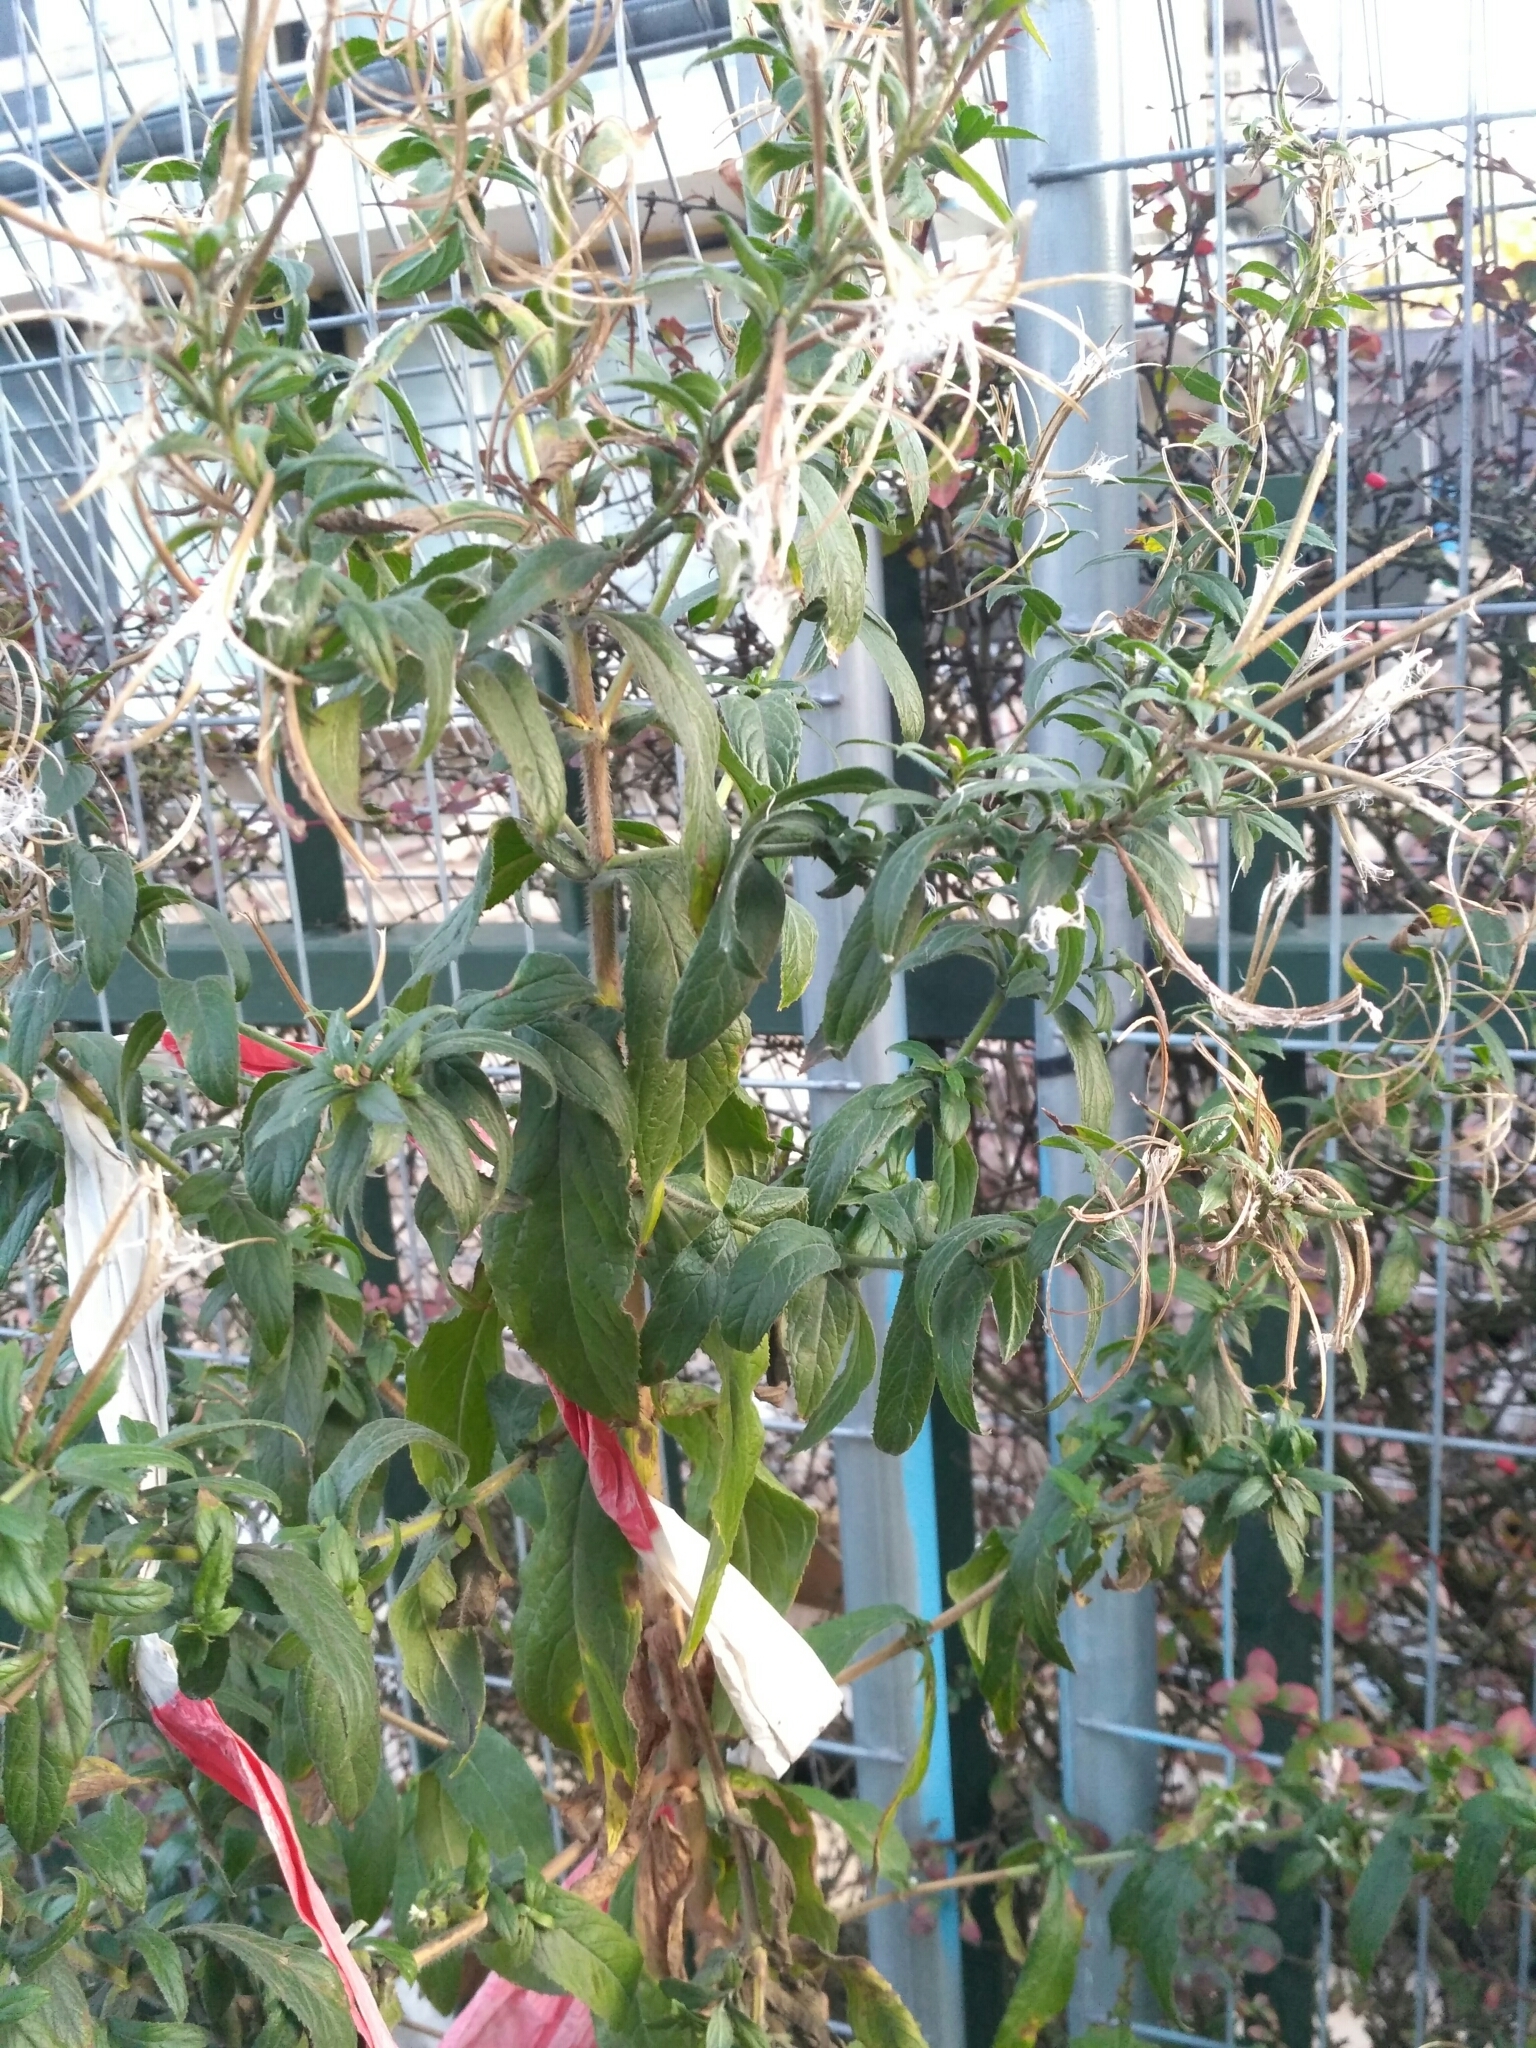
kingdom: Plantae
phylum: Tracheophyta
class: Magnoliopsida
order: Myrtales
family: Onagraceae
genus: Epilobium
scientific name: Epilobium hirsutum
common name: Great willowherb
